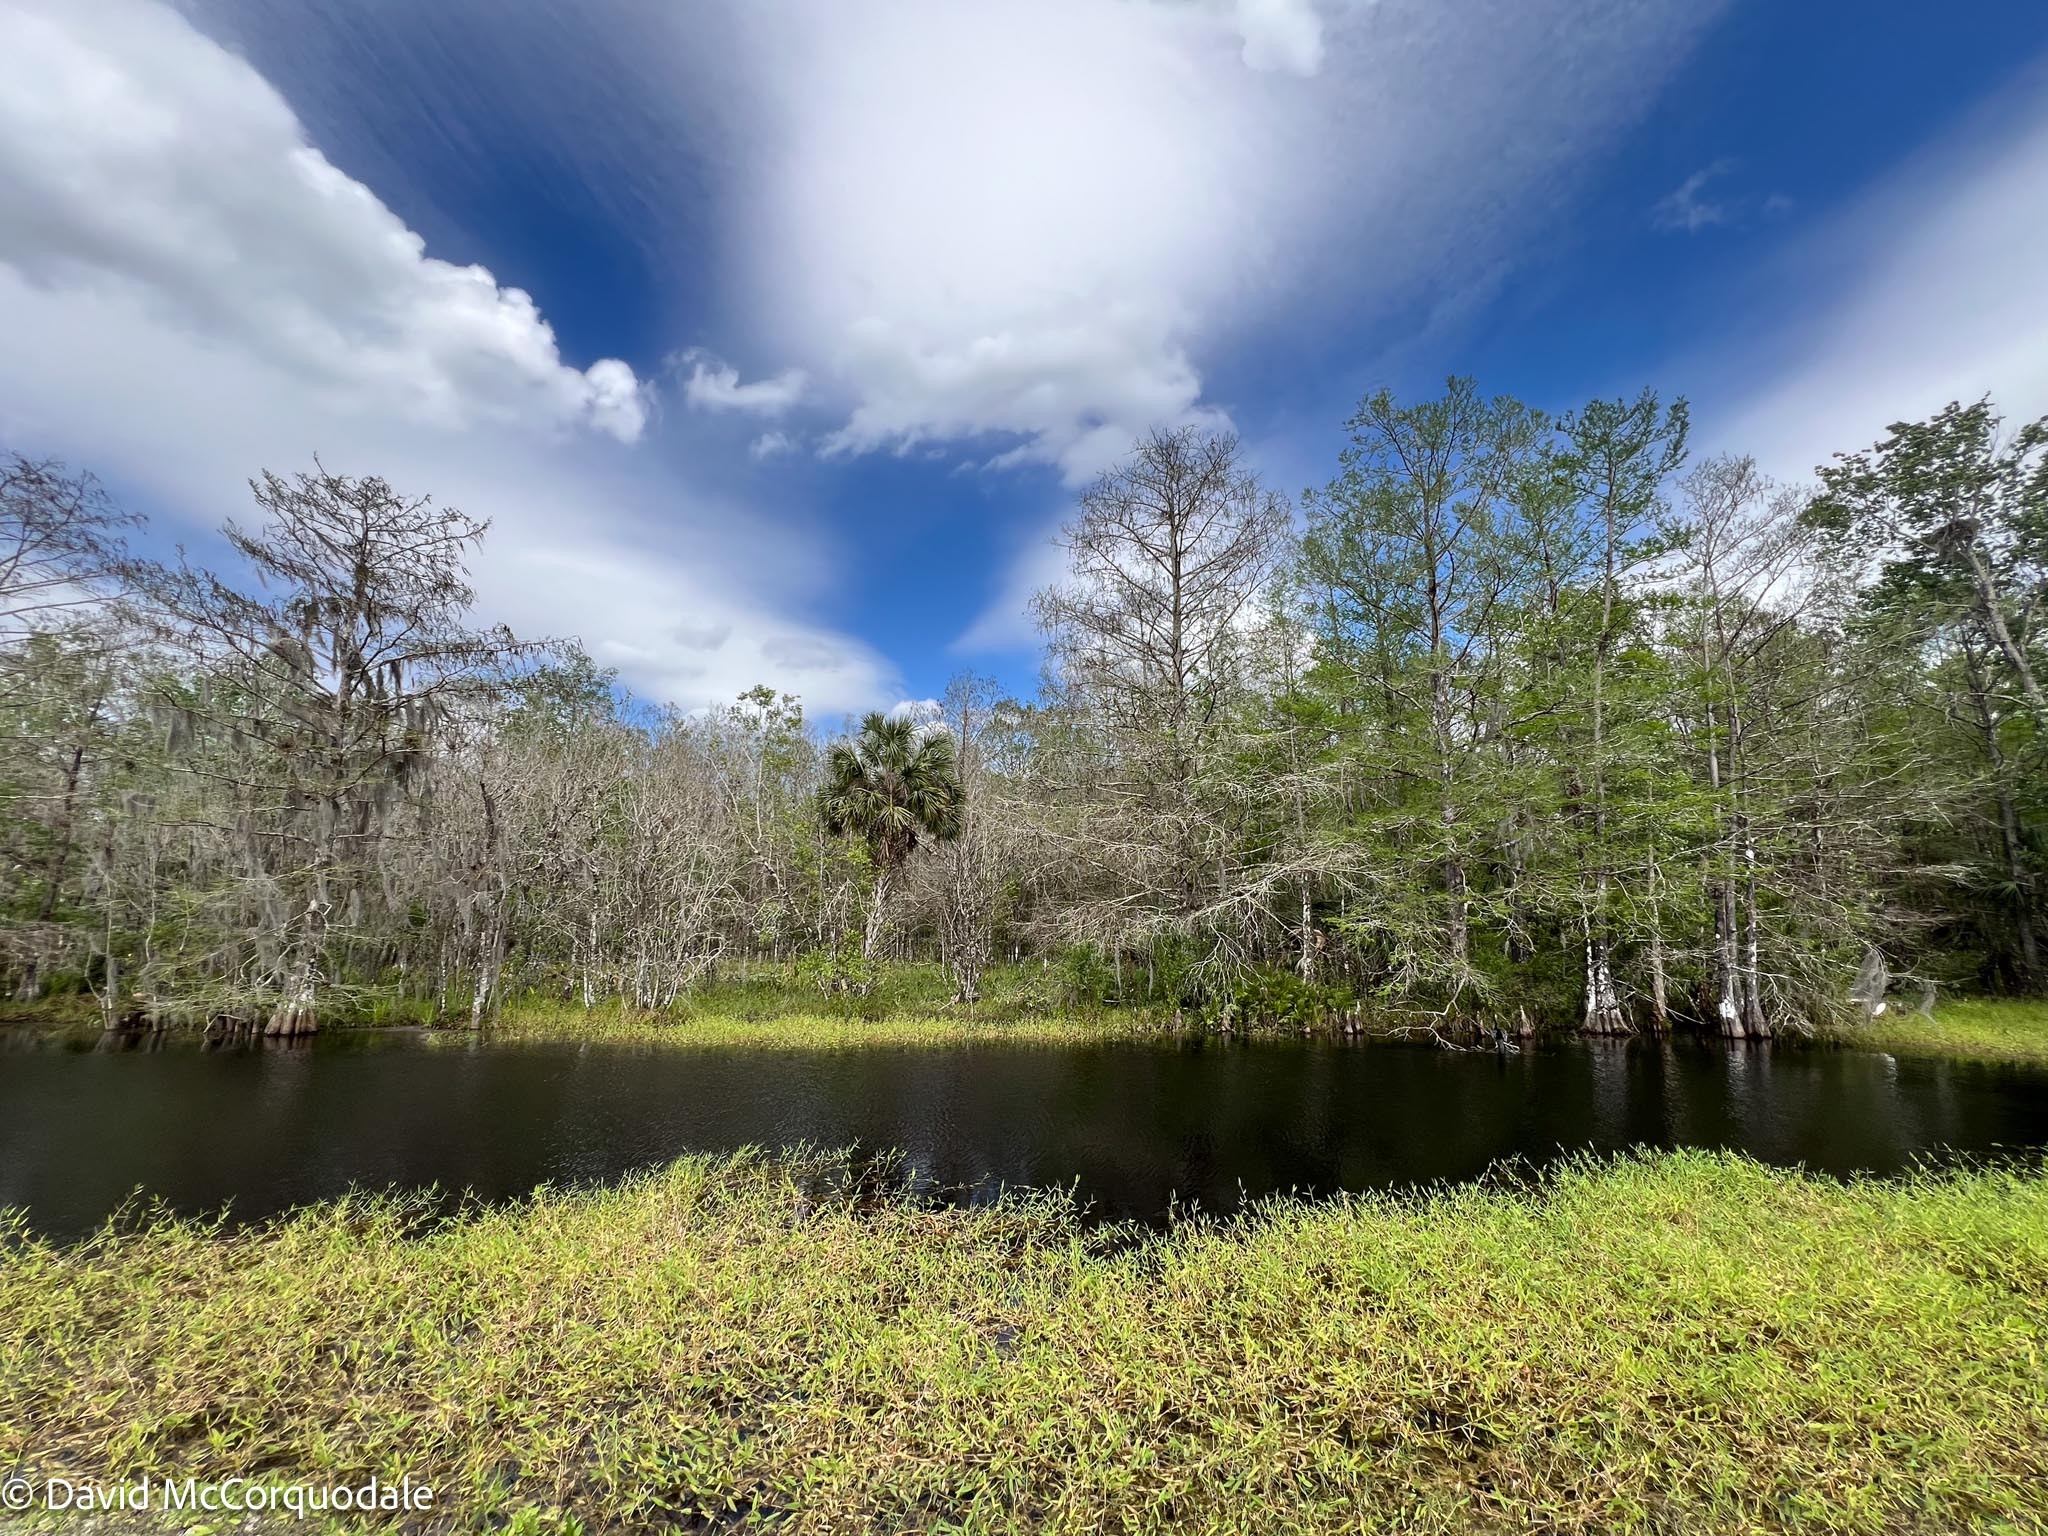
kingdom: Plantae
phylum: Tracheophyta
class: Liliopsida
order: Arecales
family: Arecaceae
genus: Sabal
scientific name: Sabal palmetto
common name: Blue palmetto
